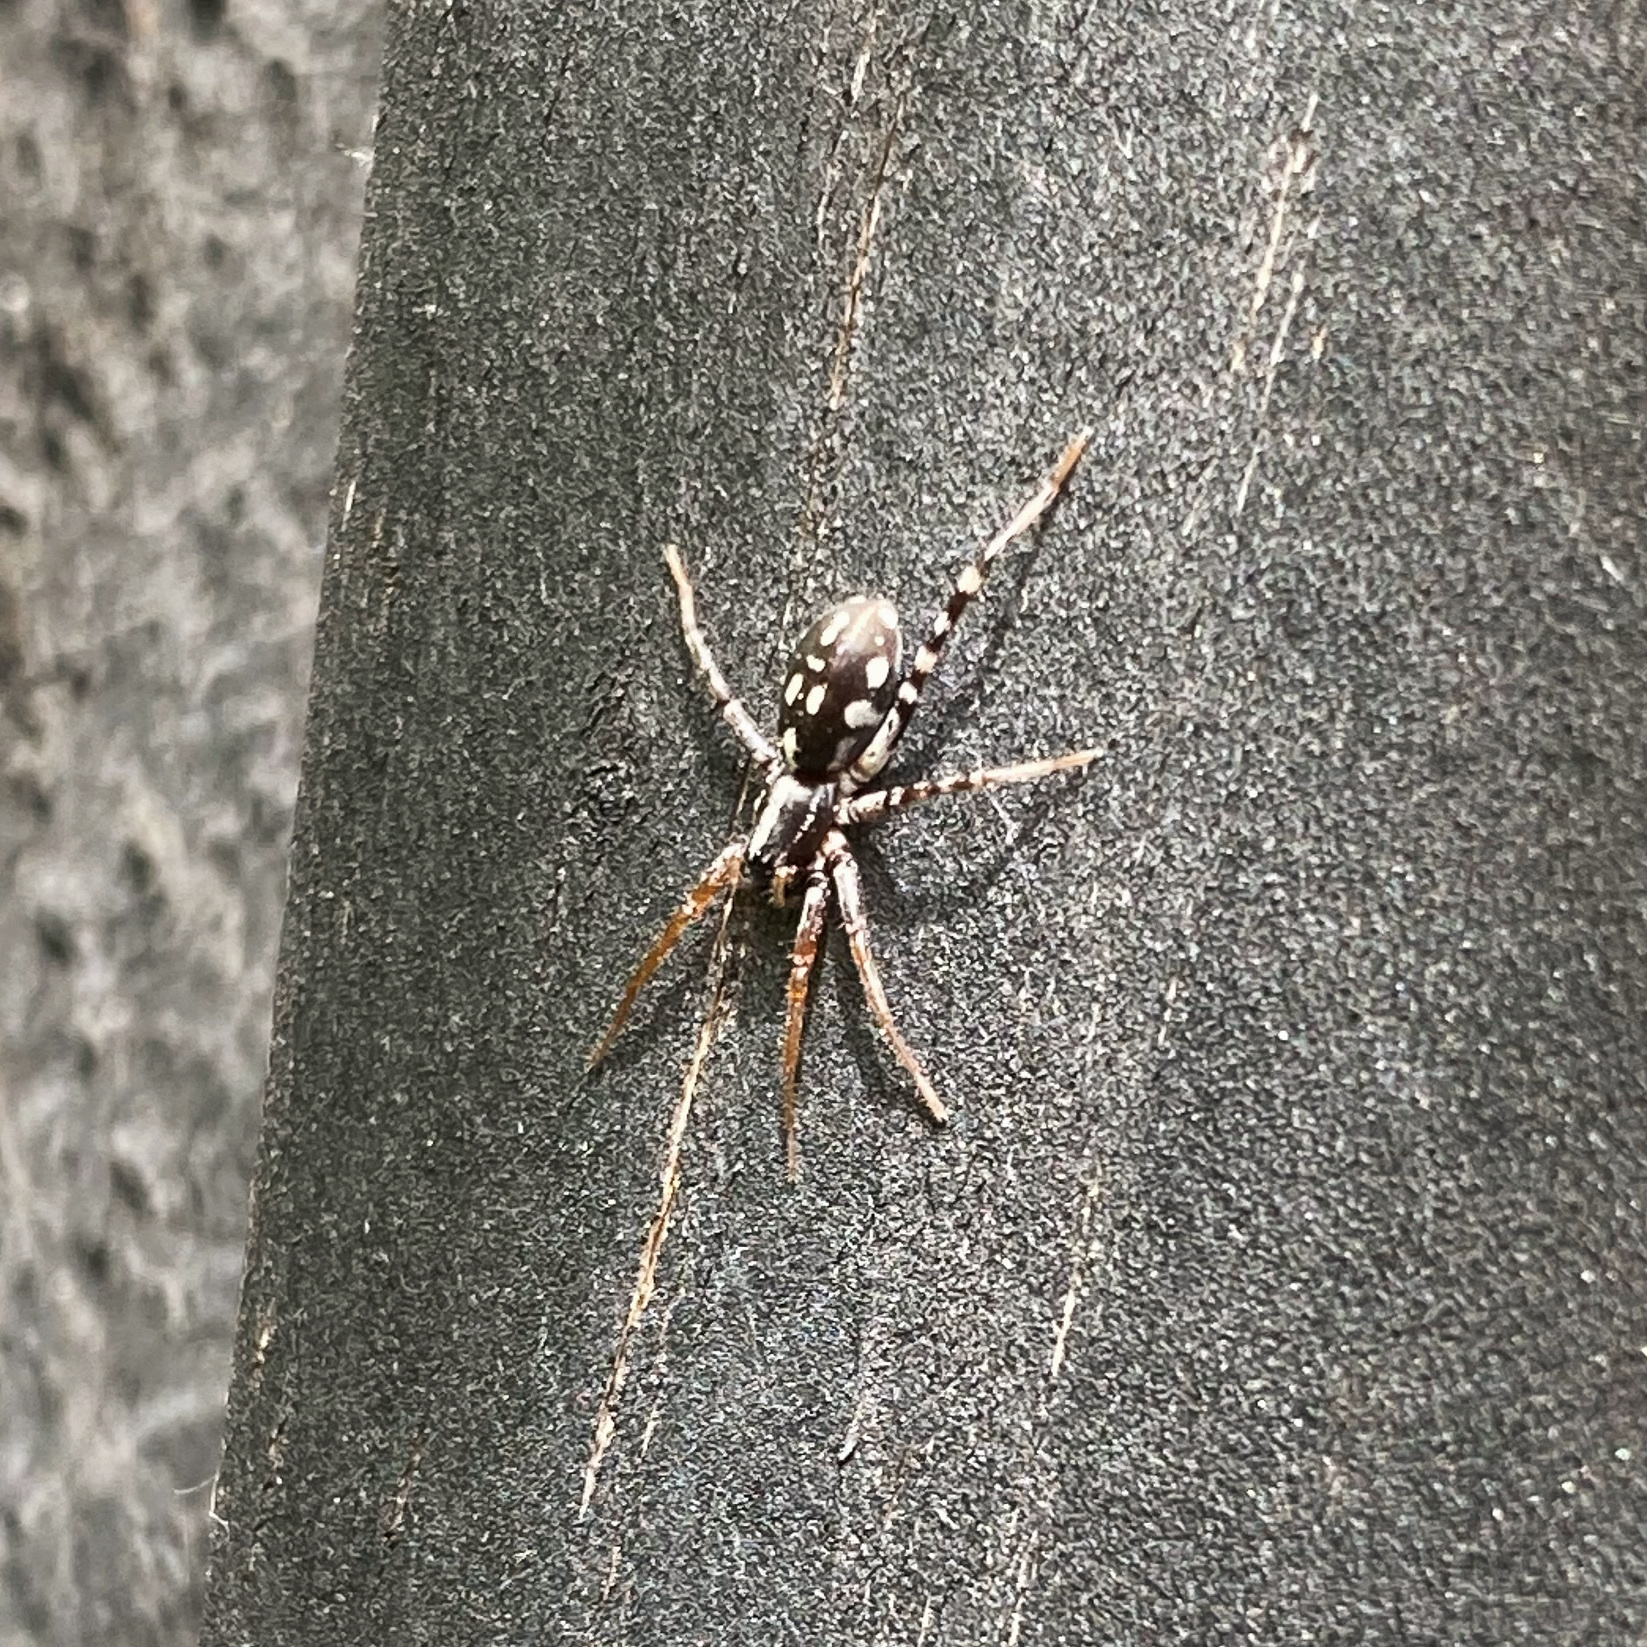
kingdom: Animalia
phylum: Arthropoda
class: Arachnida
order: Araneae
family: Corinnidae
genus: Nyssus
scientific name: Nyssus coloripes
